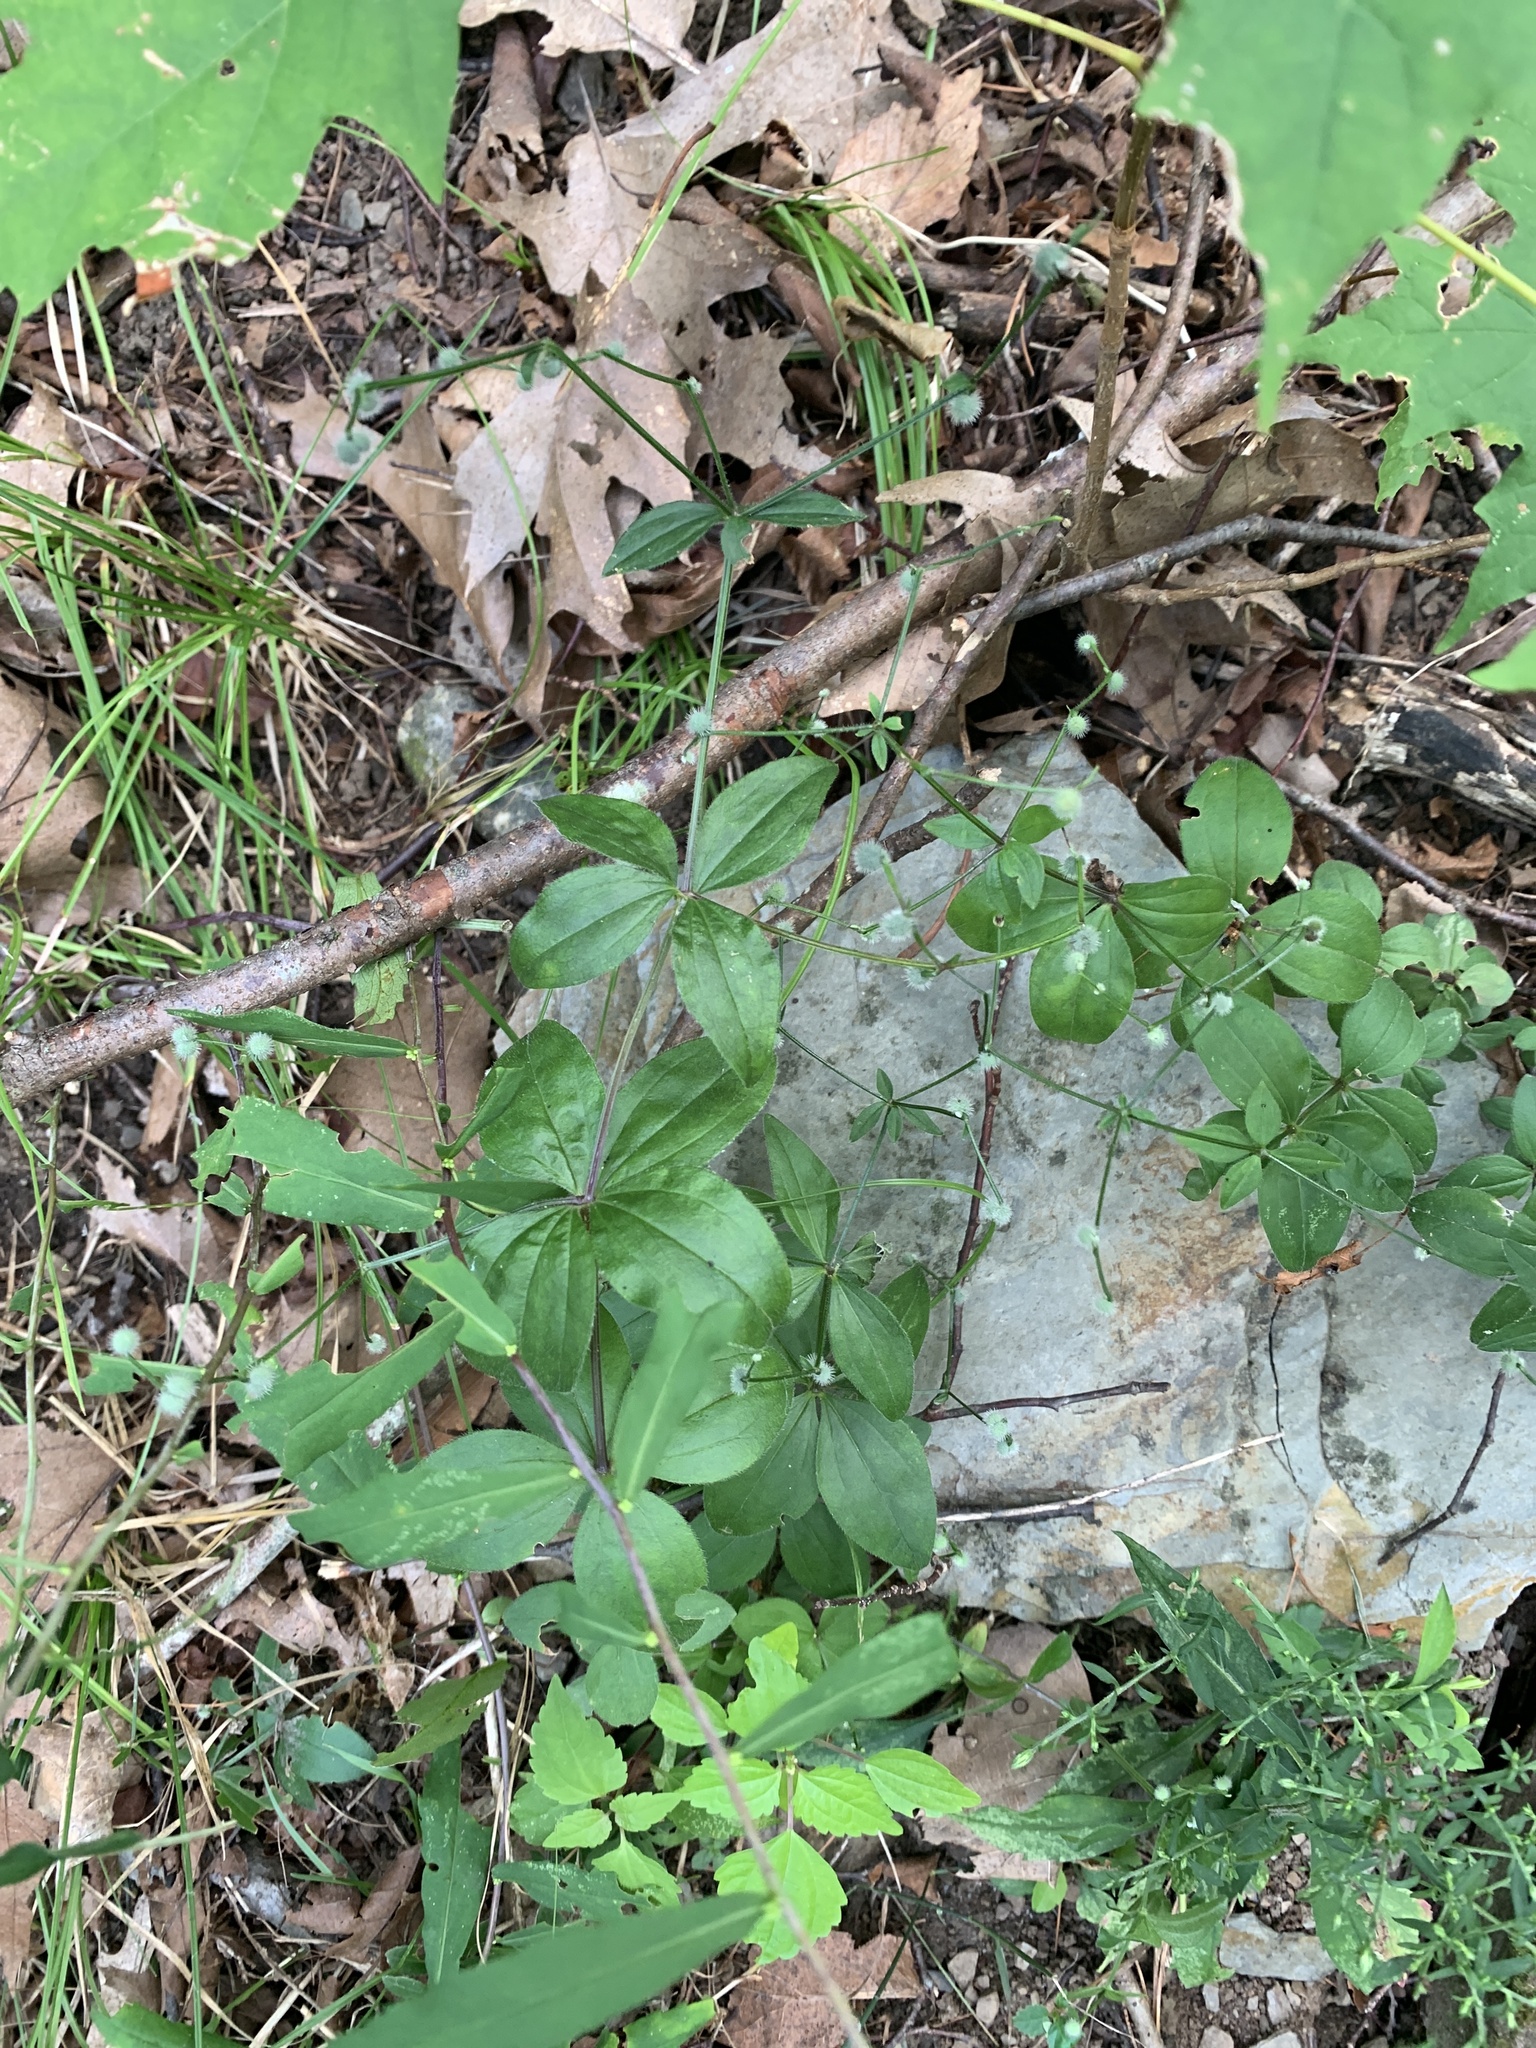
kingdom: Plantae
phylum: Tracheophyta
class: Magnoliopsida
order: Gentianales
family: Rubiaceae
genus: Galium
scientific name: Galium circaezans
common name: Forest bedstraw
